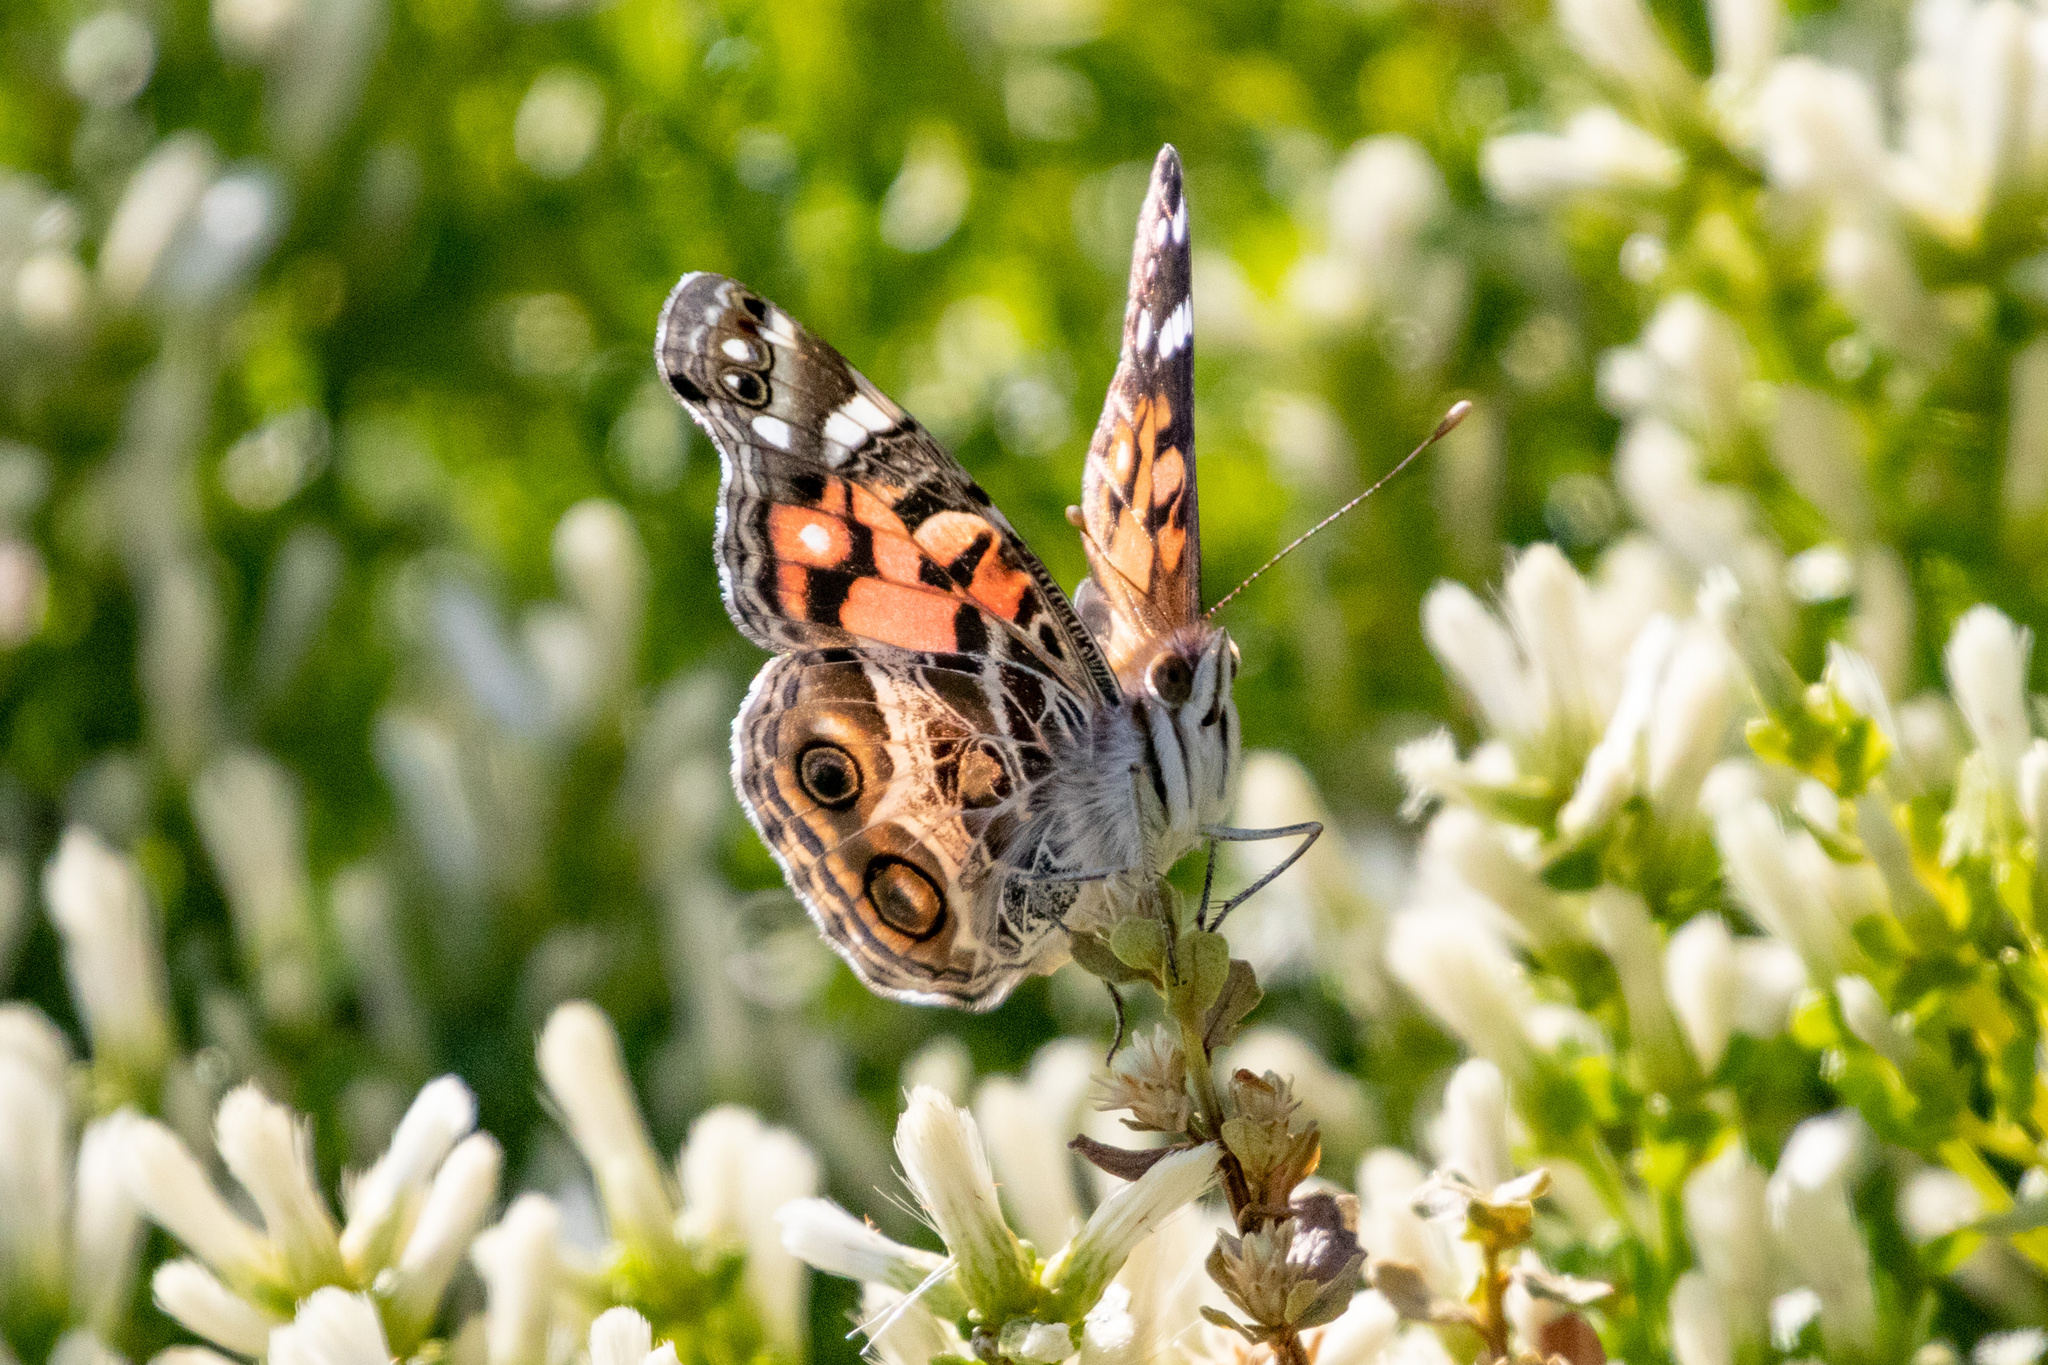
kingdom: Animalia
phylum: Arthropoda
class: Insecta
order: Lepidoptera
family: Nymphalidae
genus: Vanessa
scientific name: Vanessa virginiensis
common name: American lady
